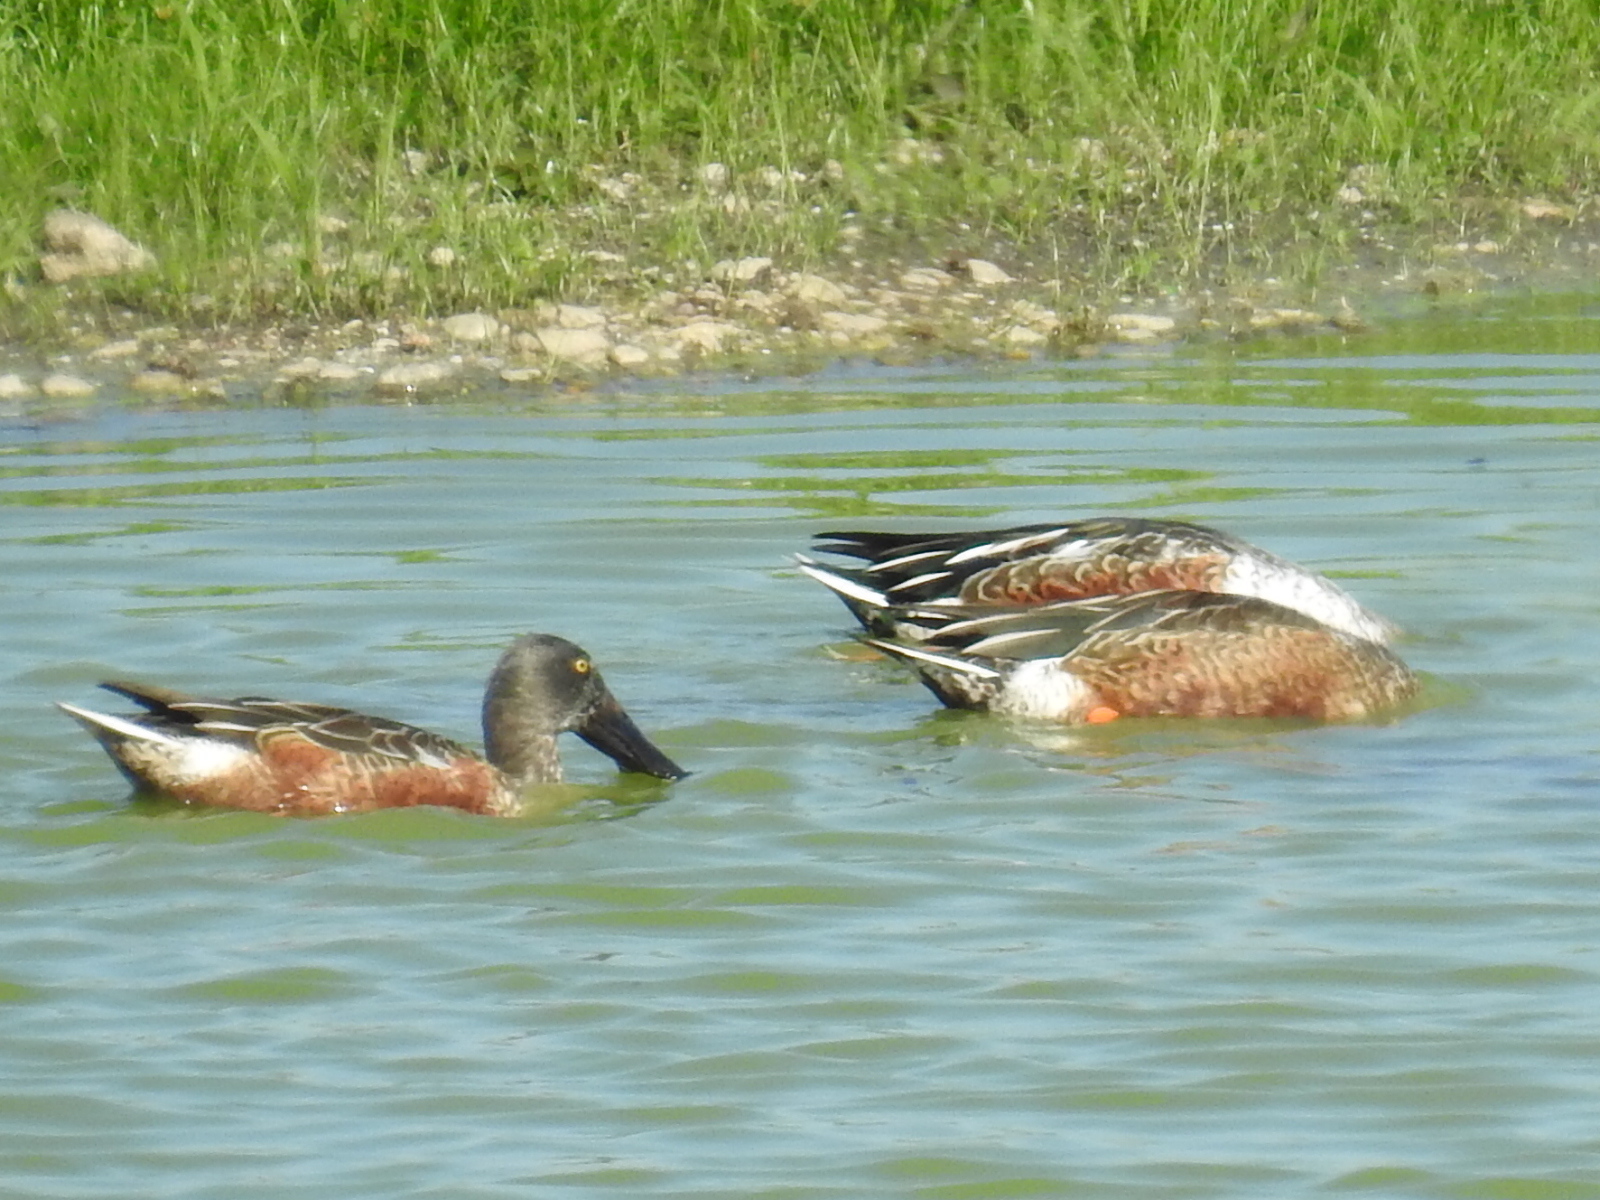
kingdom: Animalia
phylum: Chordata
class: Aves
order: Anseriformes
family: Anatidae
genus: Spatula
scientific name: Spatula clypeata
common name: Northern shoveler
